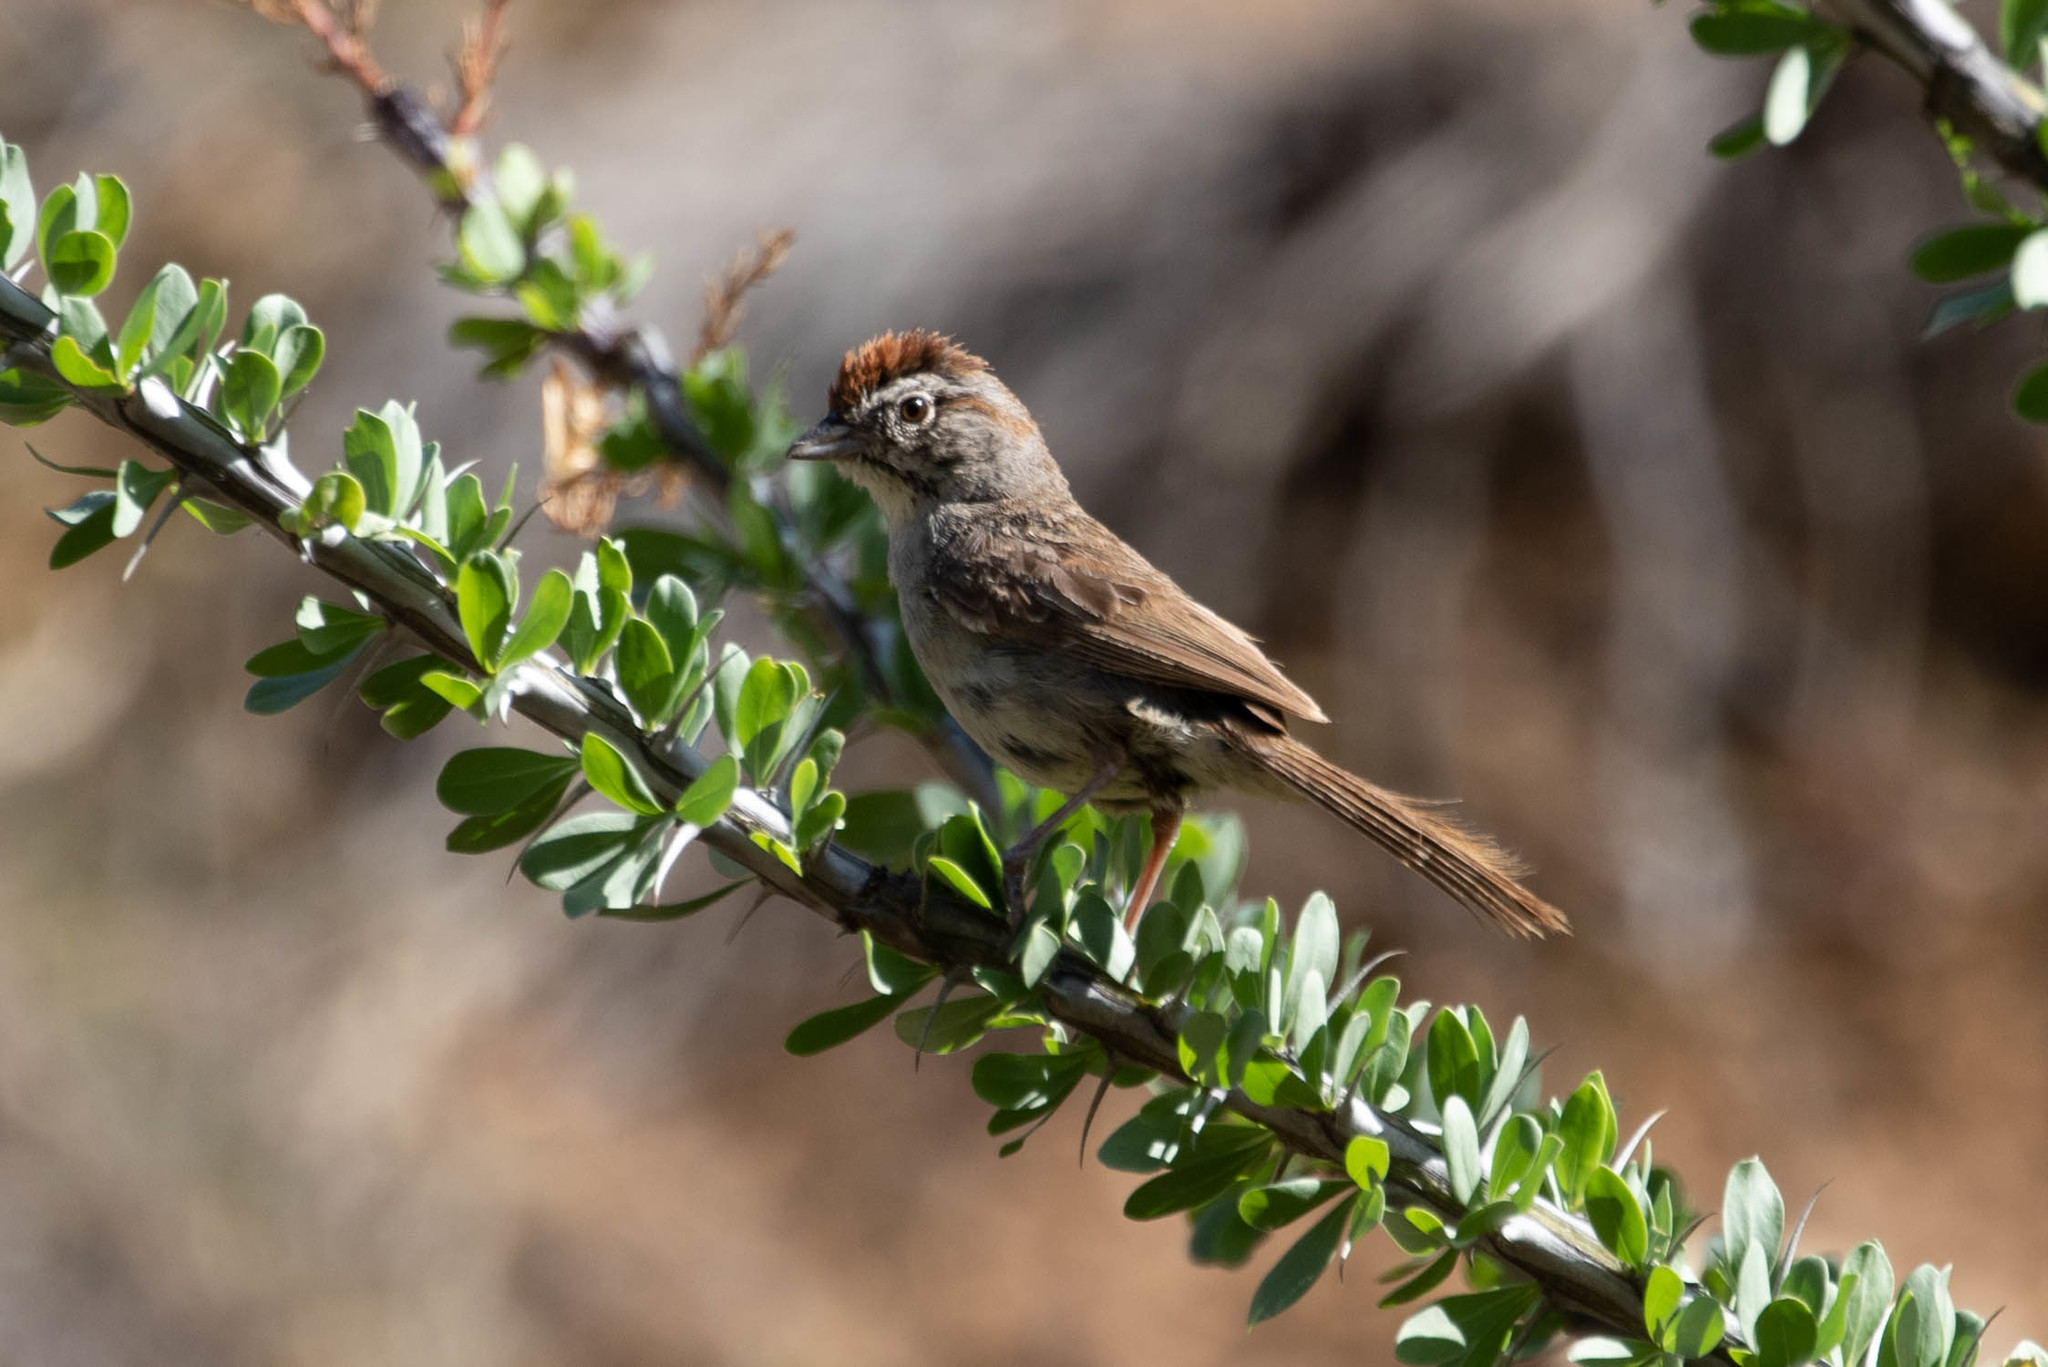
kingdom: Animalia
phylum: Chordata
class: Aves
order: Passeriformes
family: Passerellidae
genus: Aimophila
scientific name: Aimophila ruficeps
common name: Rufous-crowned sparrow
